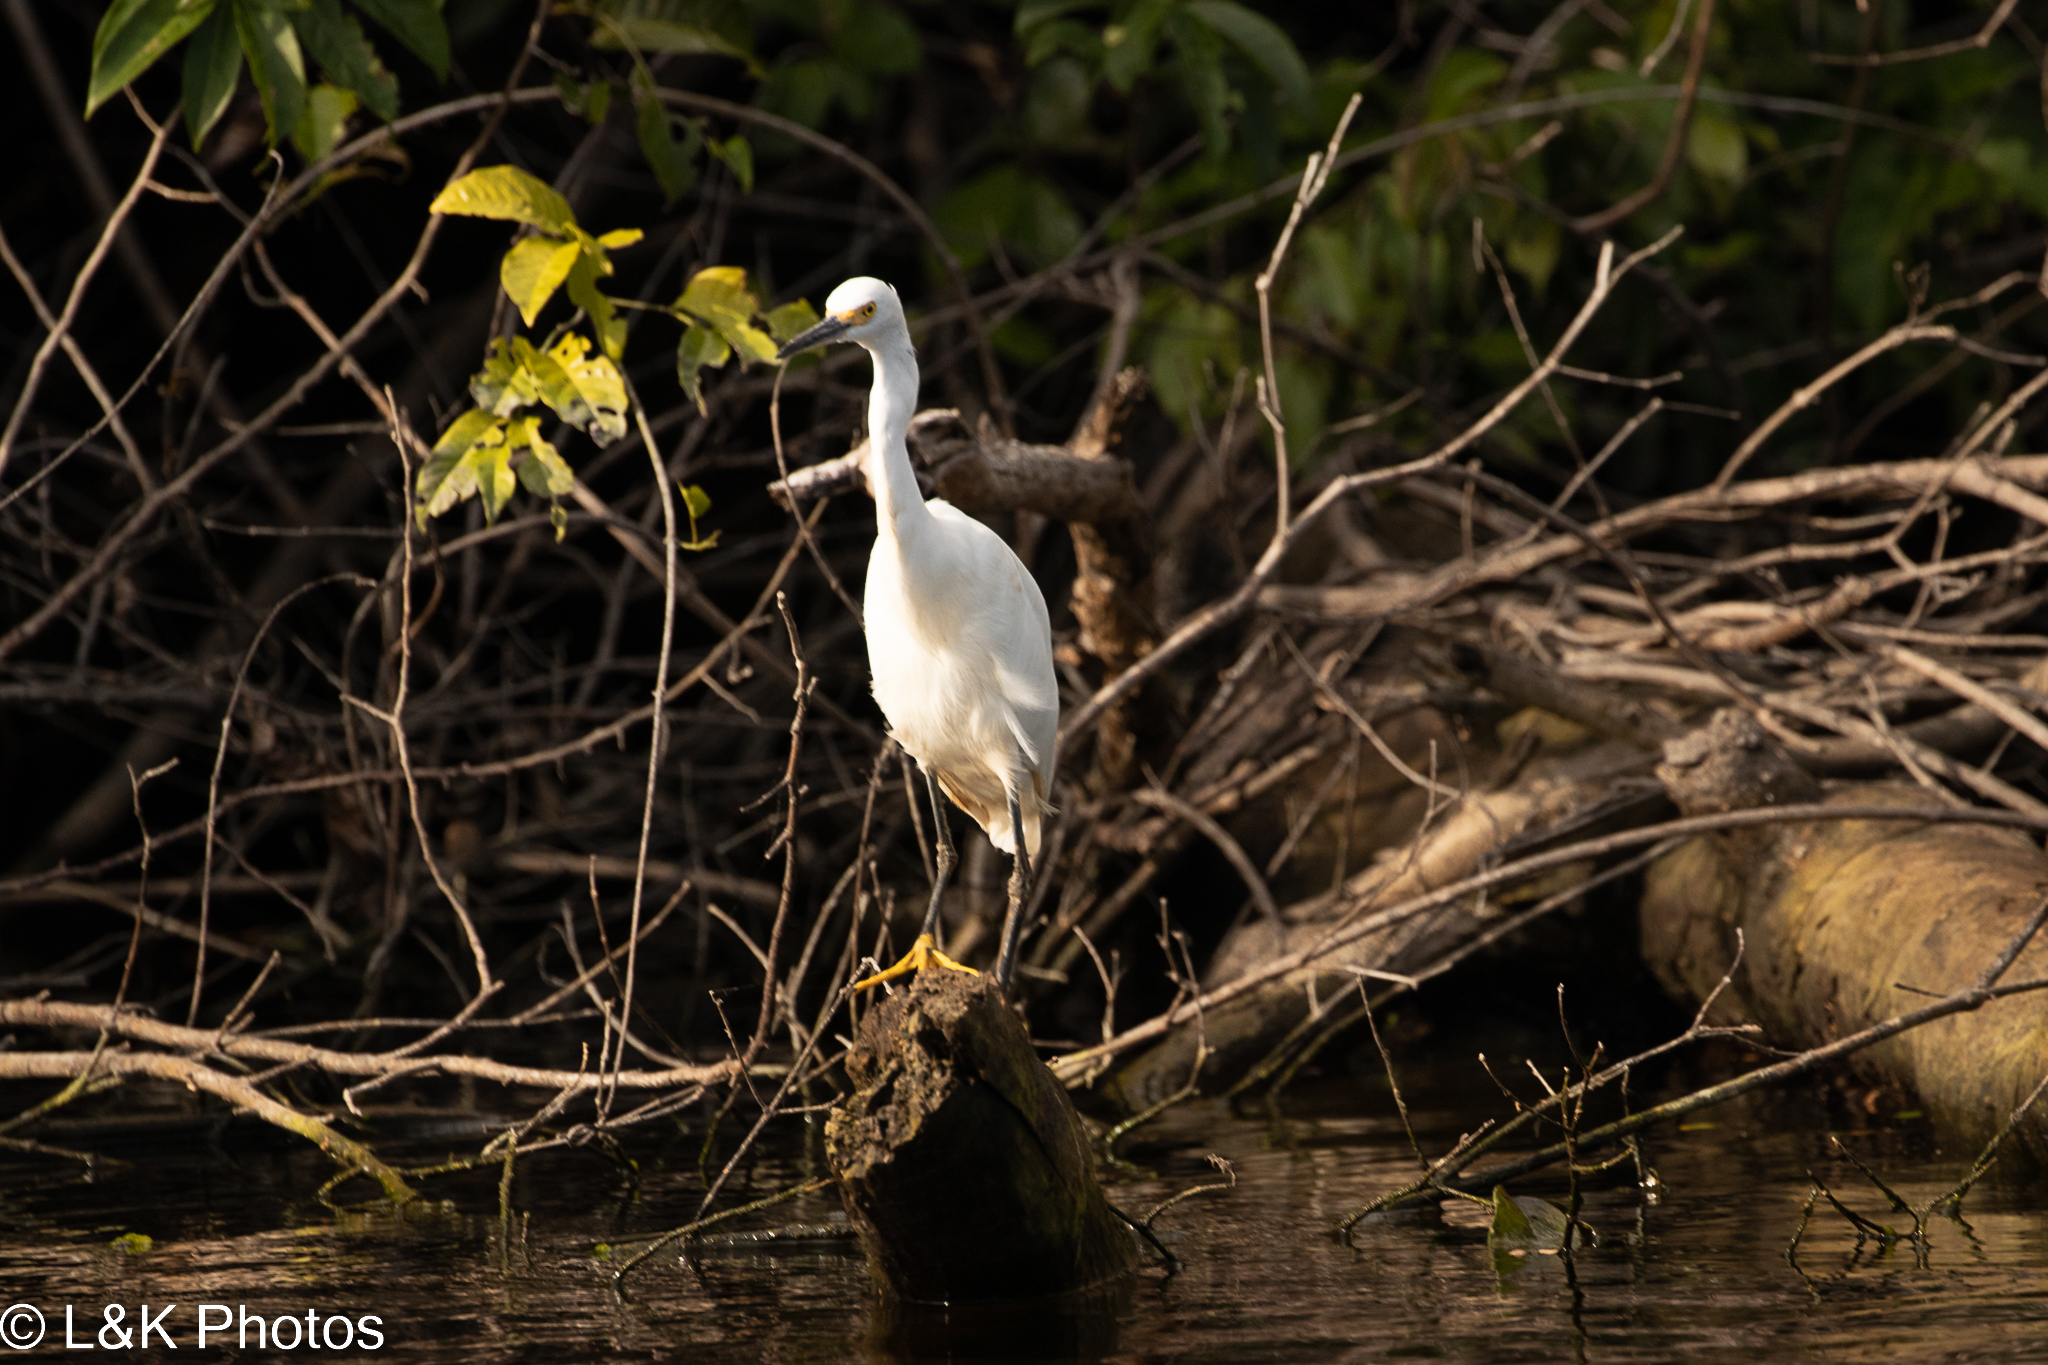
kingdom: Animalia
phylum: Chordata
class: Aves
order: Pelecaniformes
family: Ardeidae
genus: Egretta
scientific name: Egretta thula
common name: Snowy egret
